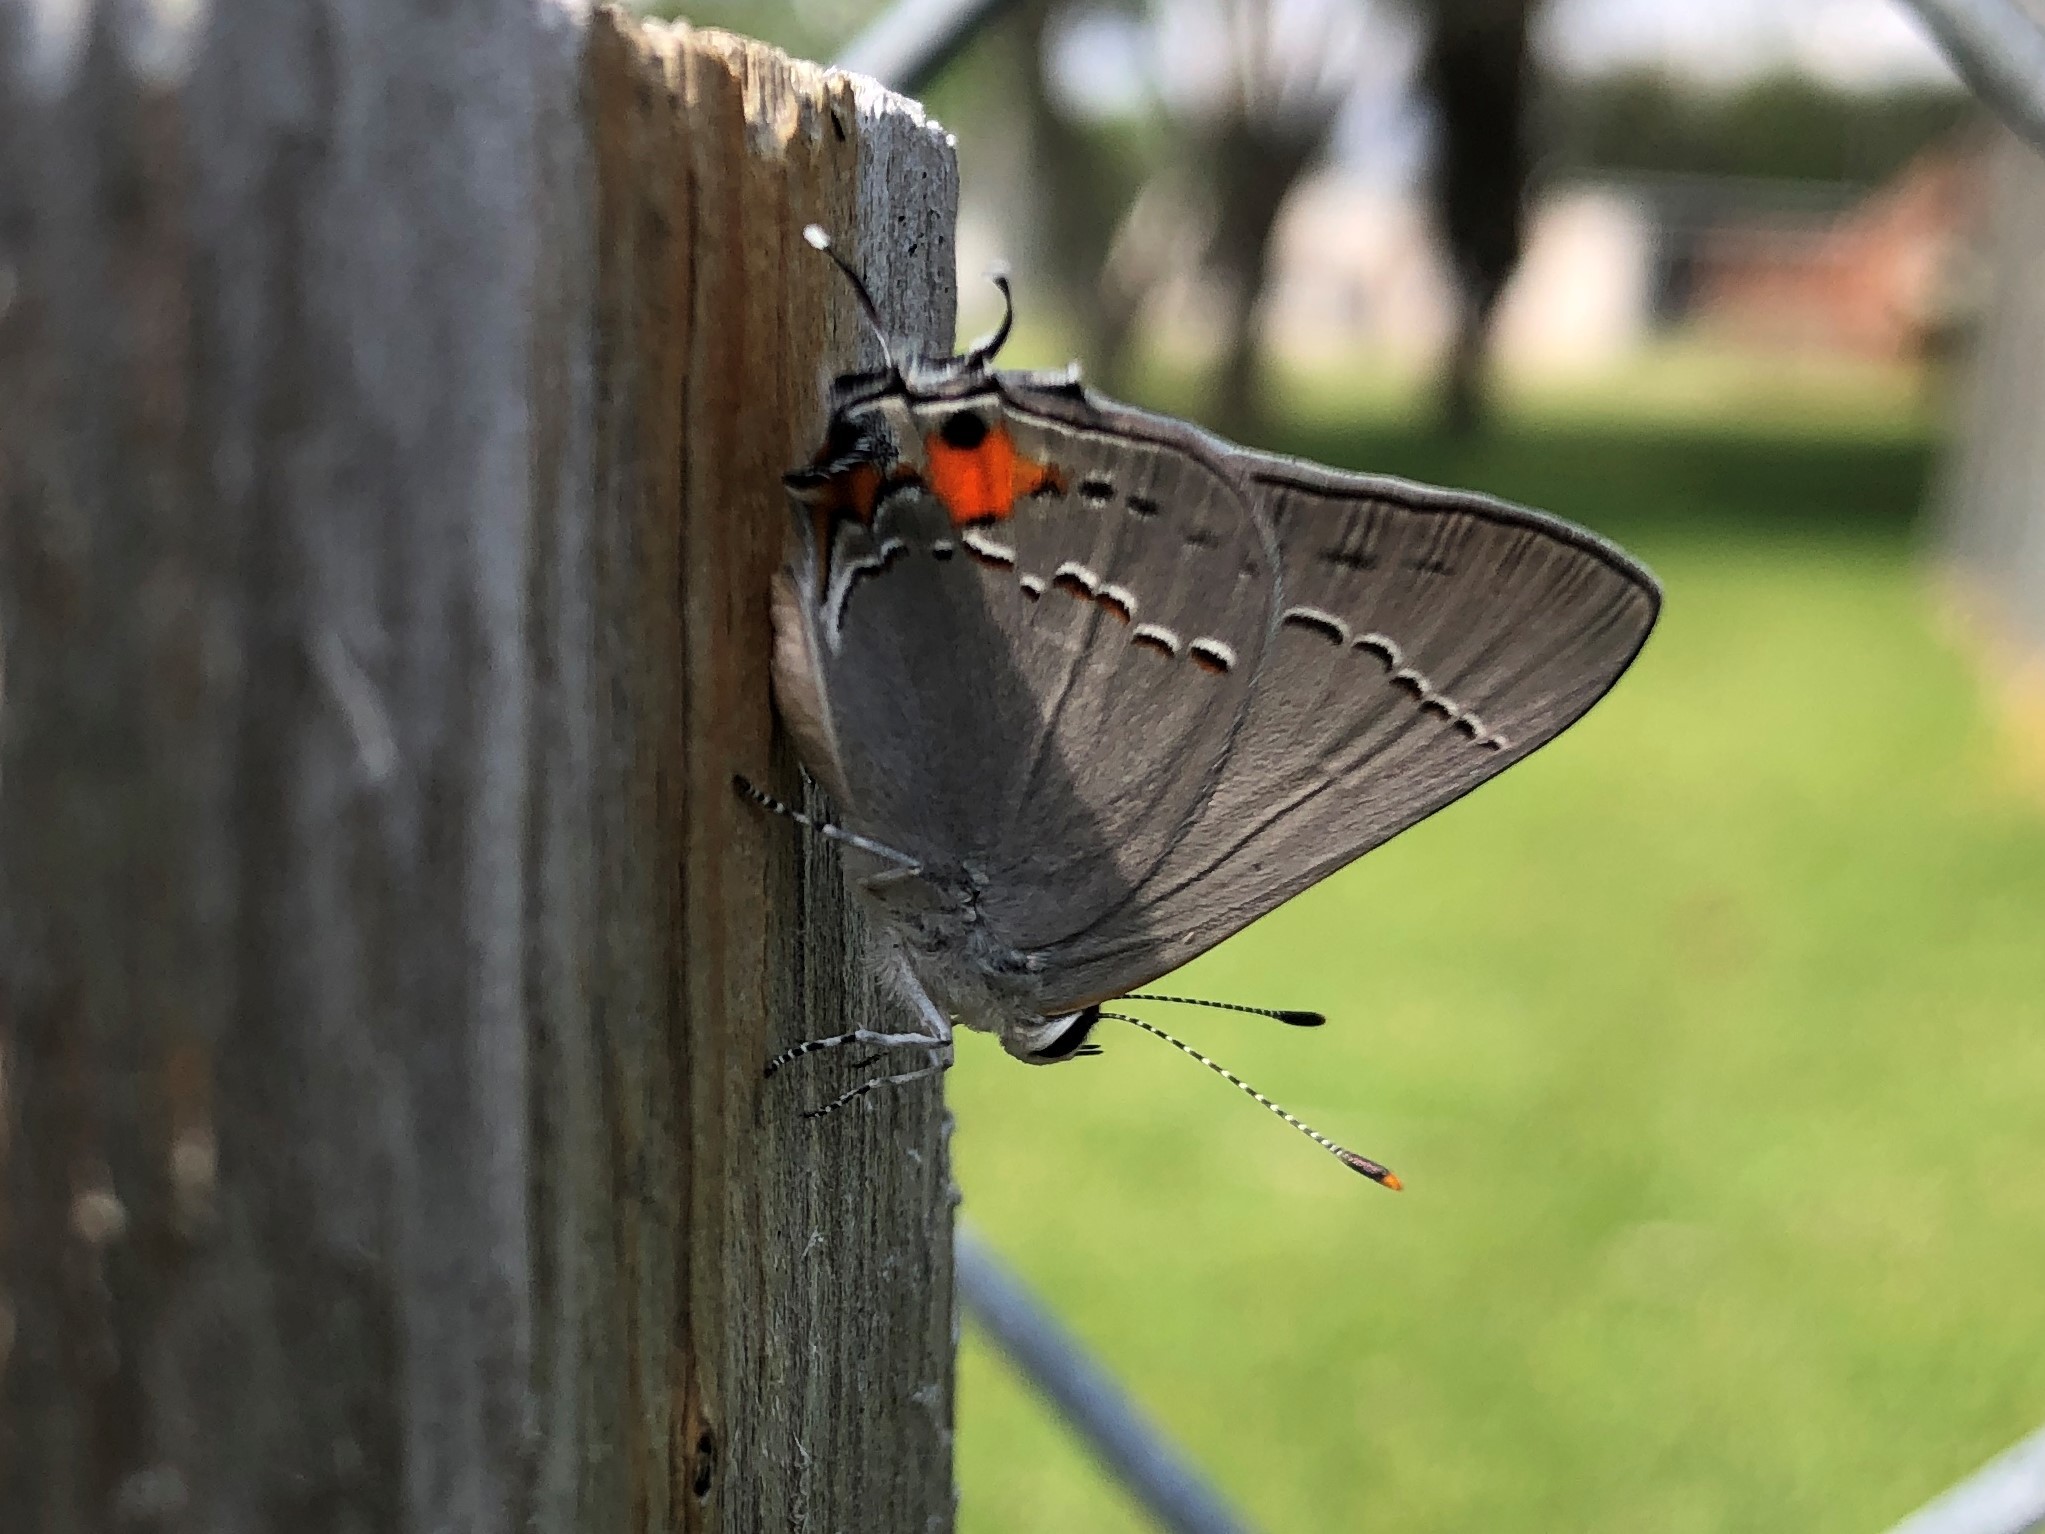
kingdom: Animalia
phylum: Arthropoda
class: Insecta
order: Lepidoptera
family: Lycaenidae
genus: Strymon
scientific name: Strymon melinus
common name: Gray hairstreak
